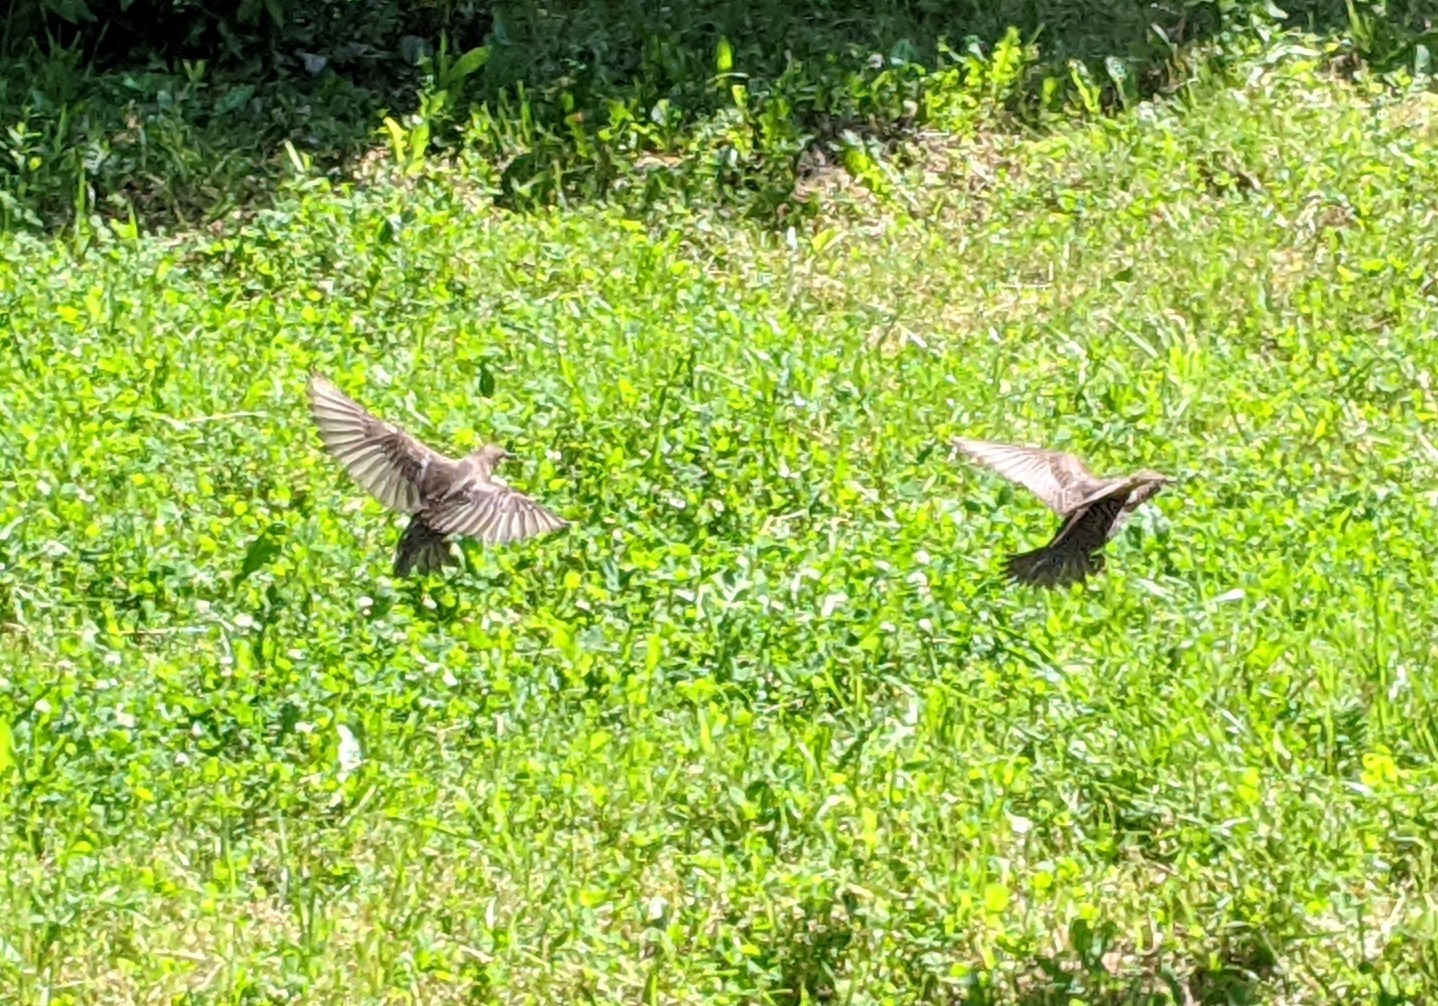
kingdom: Animalia
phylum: Chordata
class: Aves
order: Passeriformes
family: Sturnidae
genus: Sturnus
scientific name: Sturnus vulgaris
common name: Common starling
